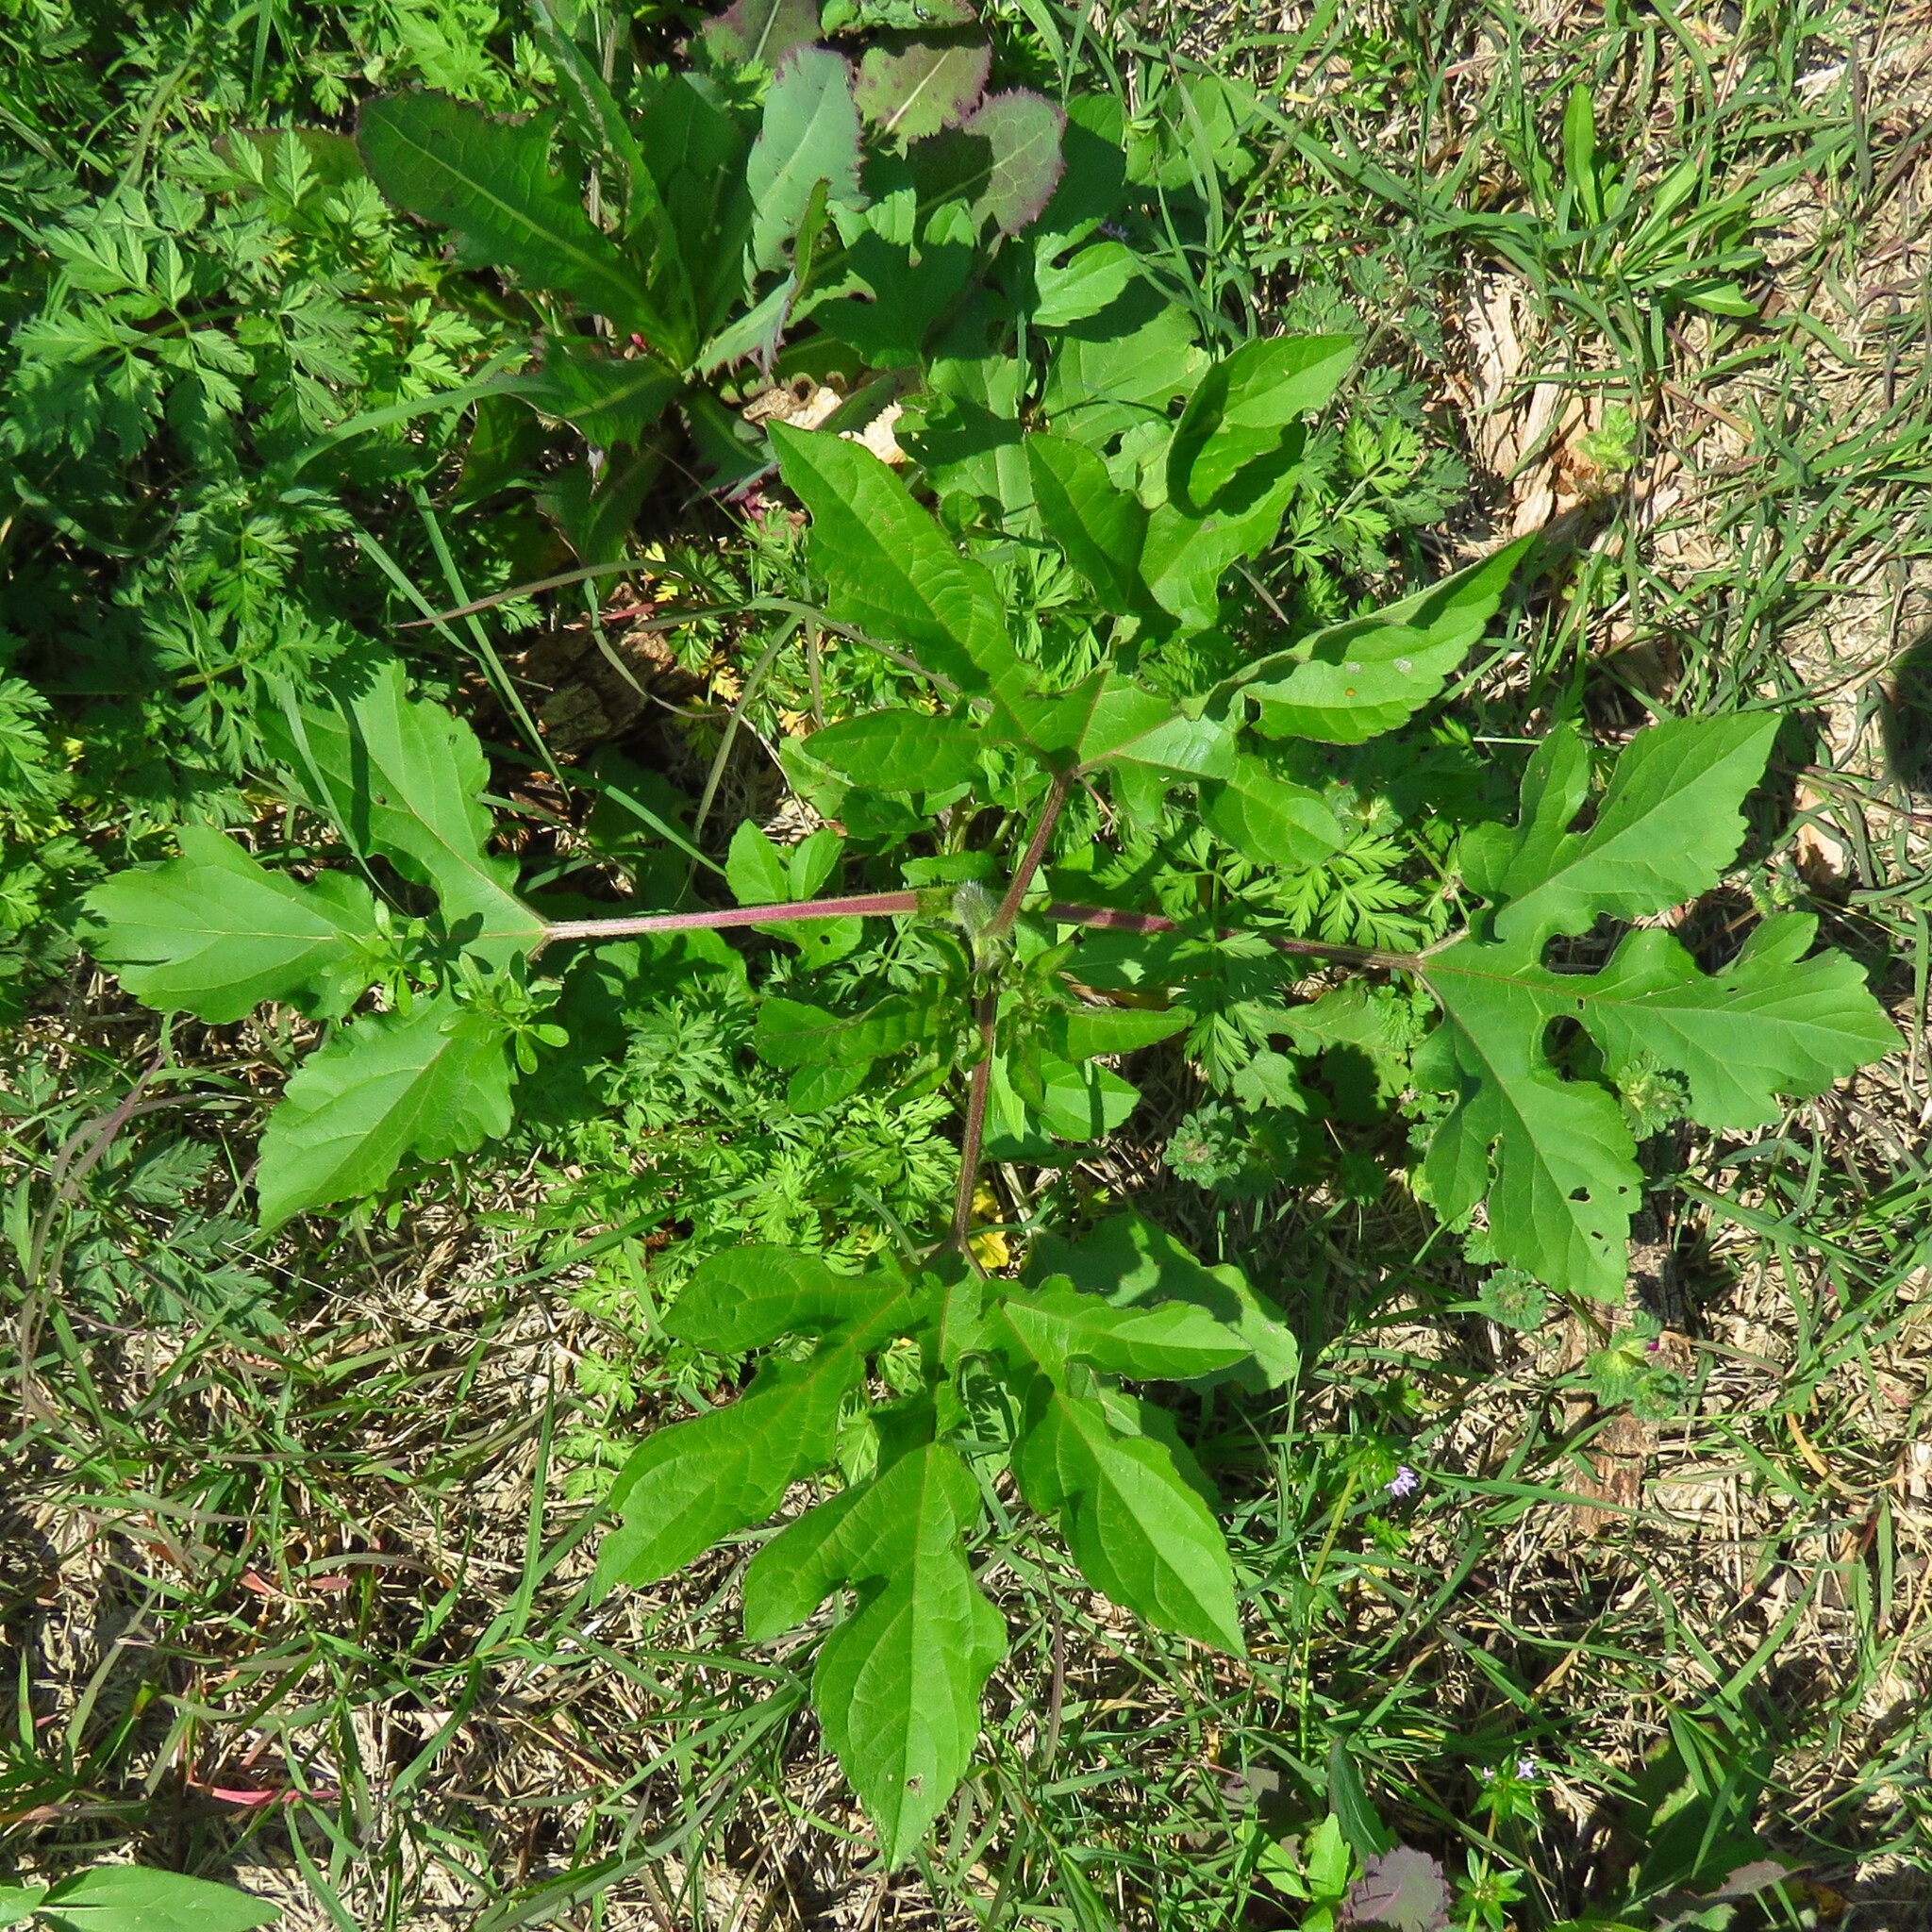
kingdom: Plantae
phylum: Tracheophyta
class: Magnoliopsida
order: Asterales
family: Asteraceae
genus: Ambrosia
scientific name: Ambrosia trifida
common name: Giant ragweed
